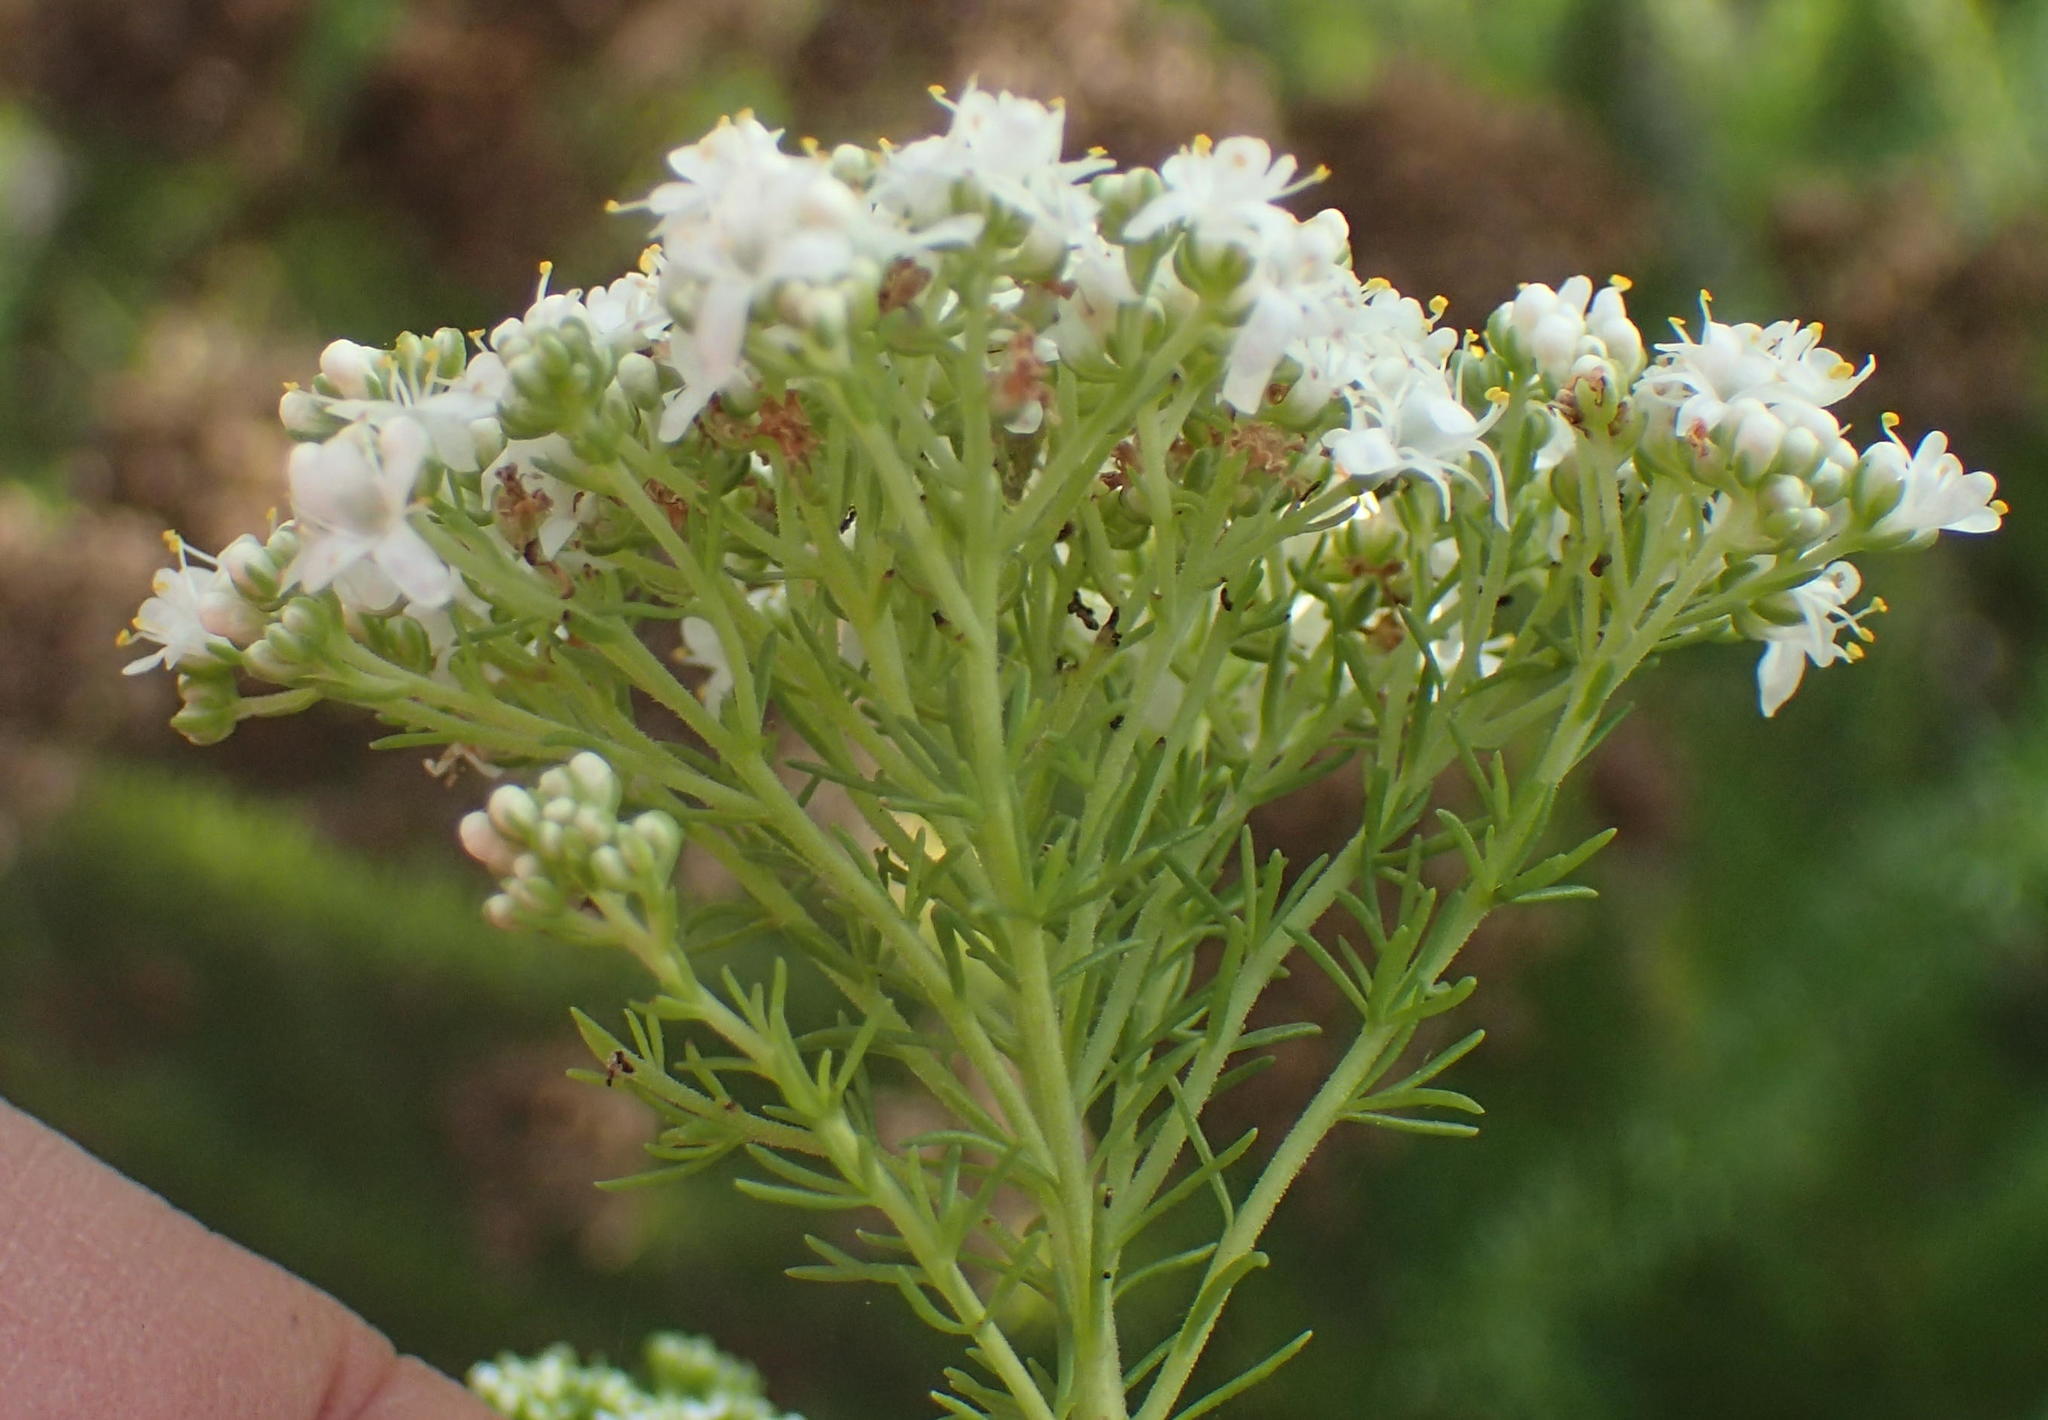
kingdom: Plantae
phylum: Tracheophyta
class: Magnoliopsida
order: Lamiales
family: Scrophulariaceae
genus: Selago
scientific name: Selago corymbosa
